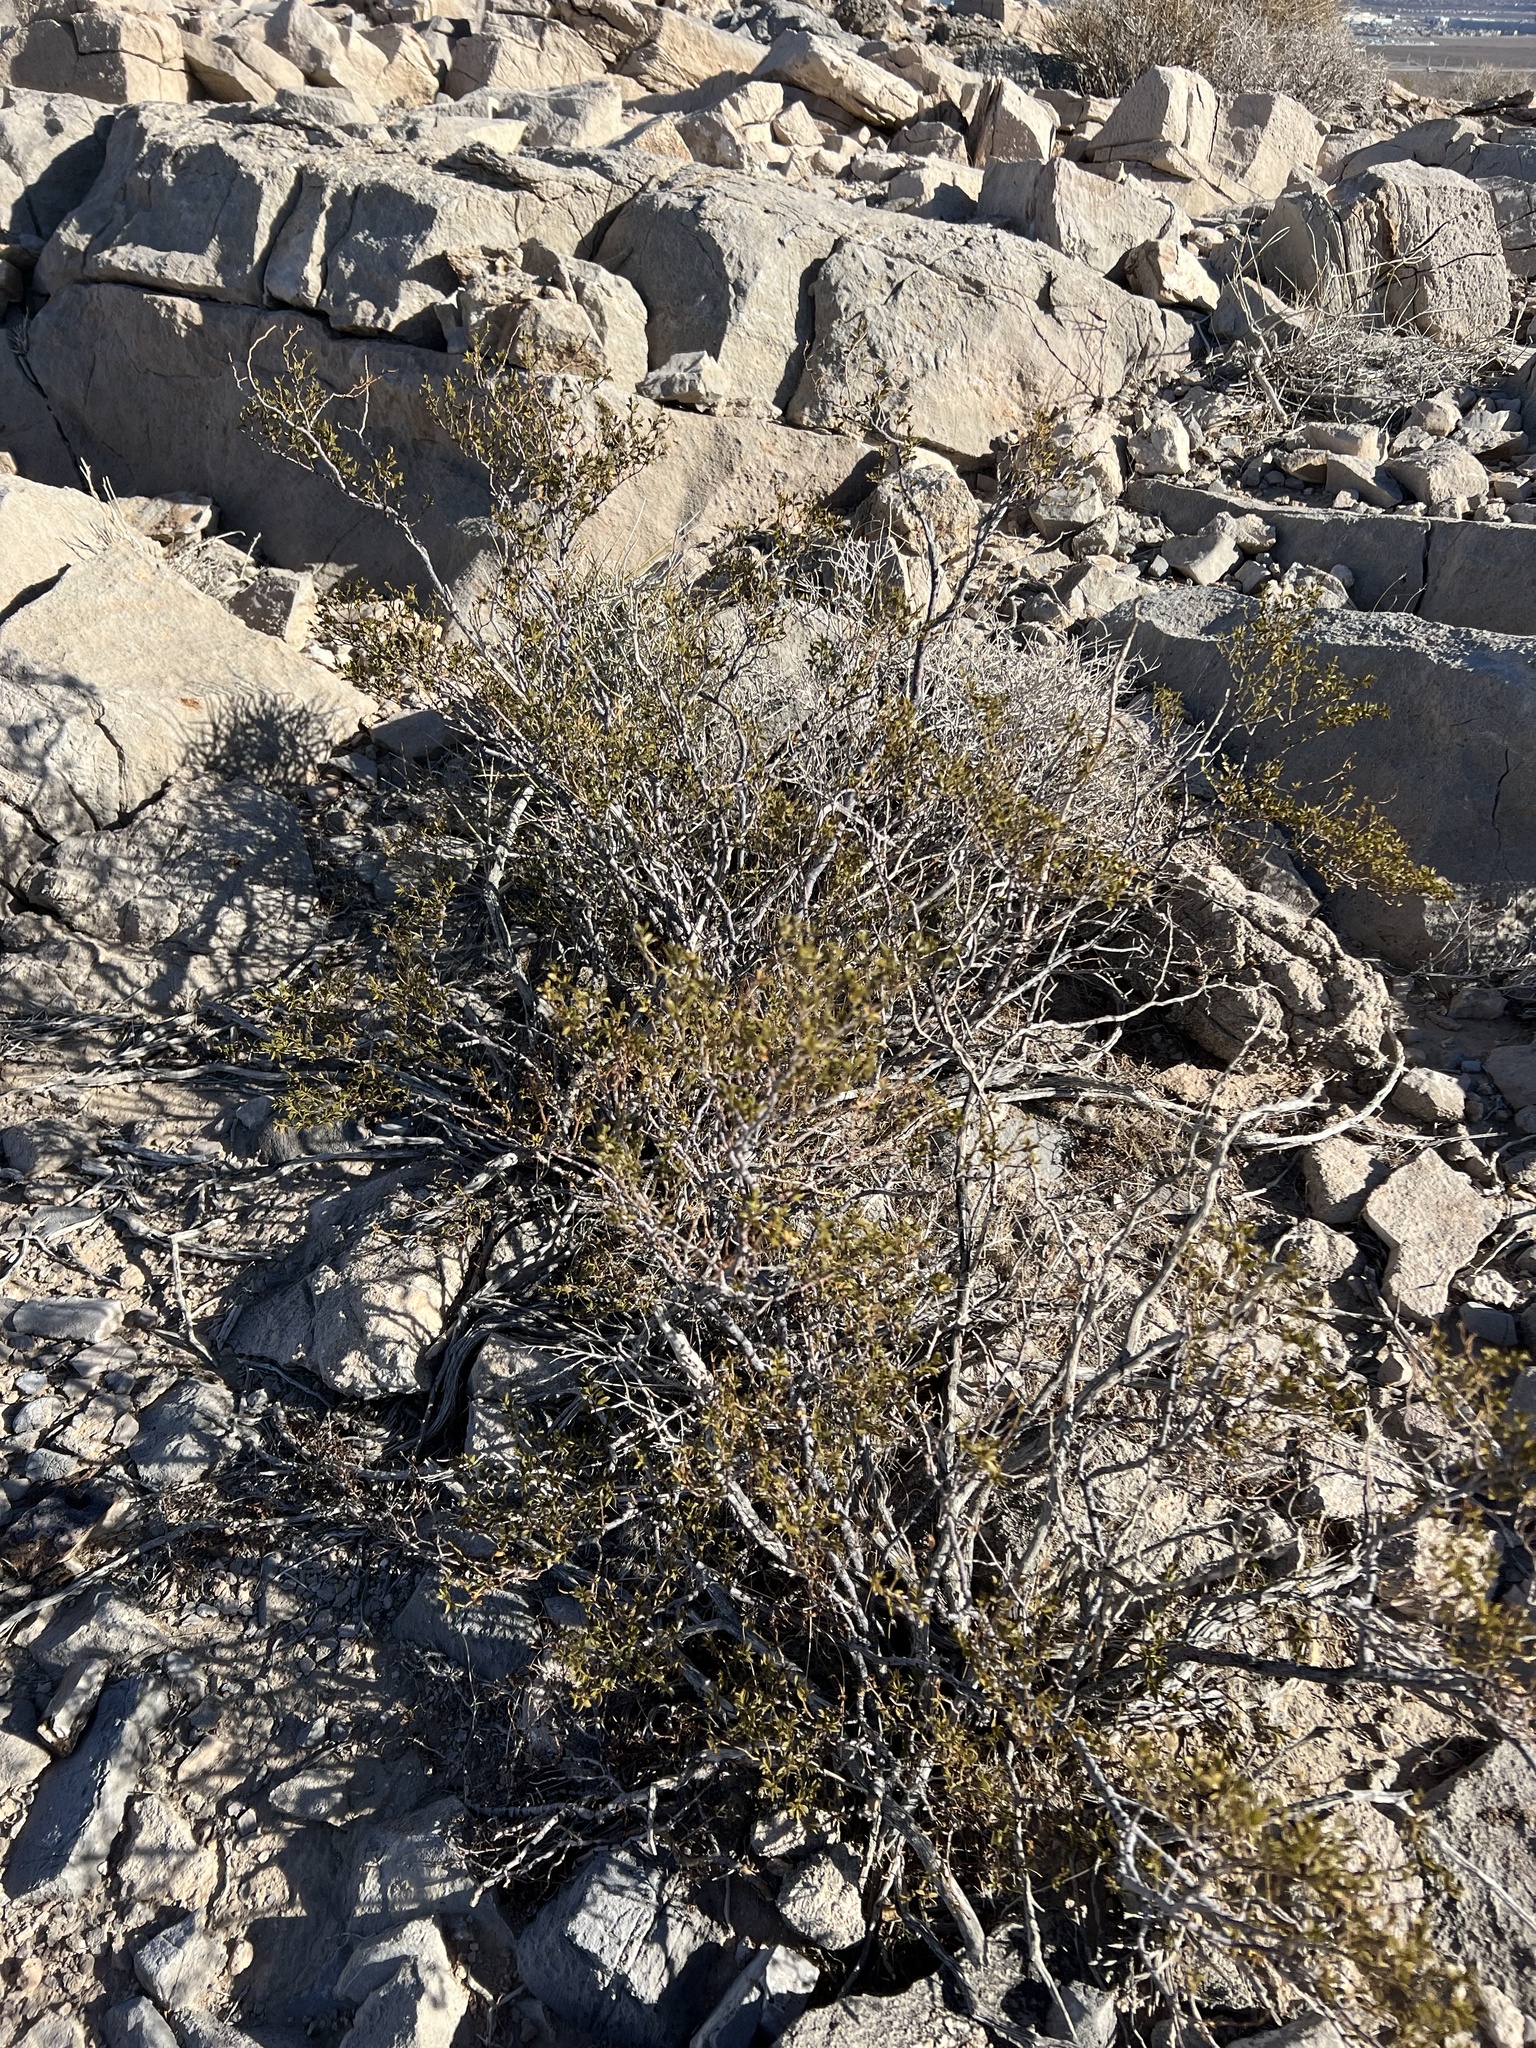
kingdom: Plantae
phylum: Tracheophyta
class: Magnoliopsida
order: Zygophyllales
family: Zygophyllaceae
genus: Larrea
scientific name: Larrea tridentata
